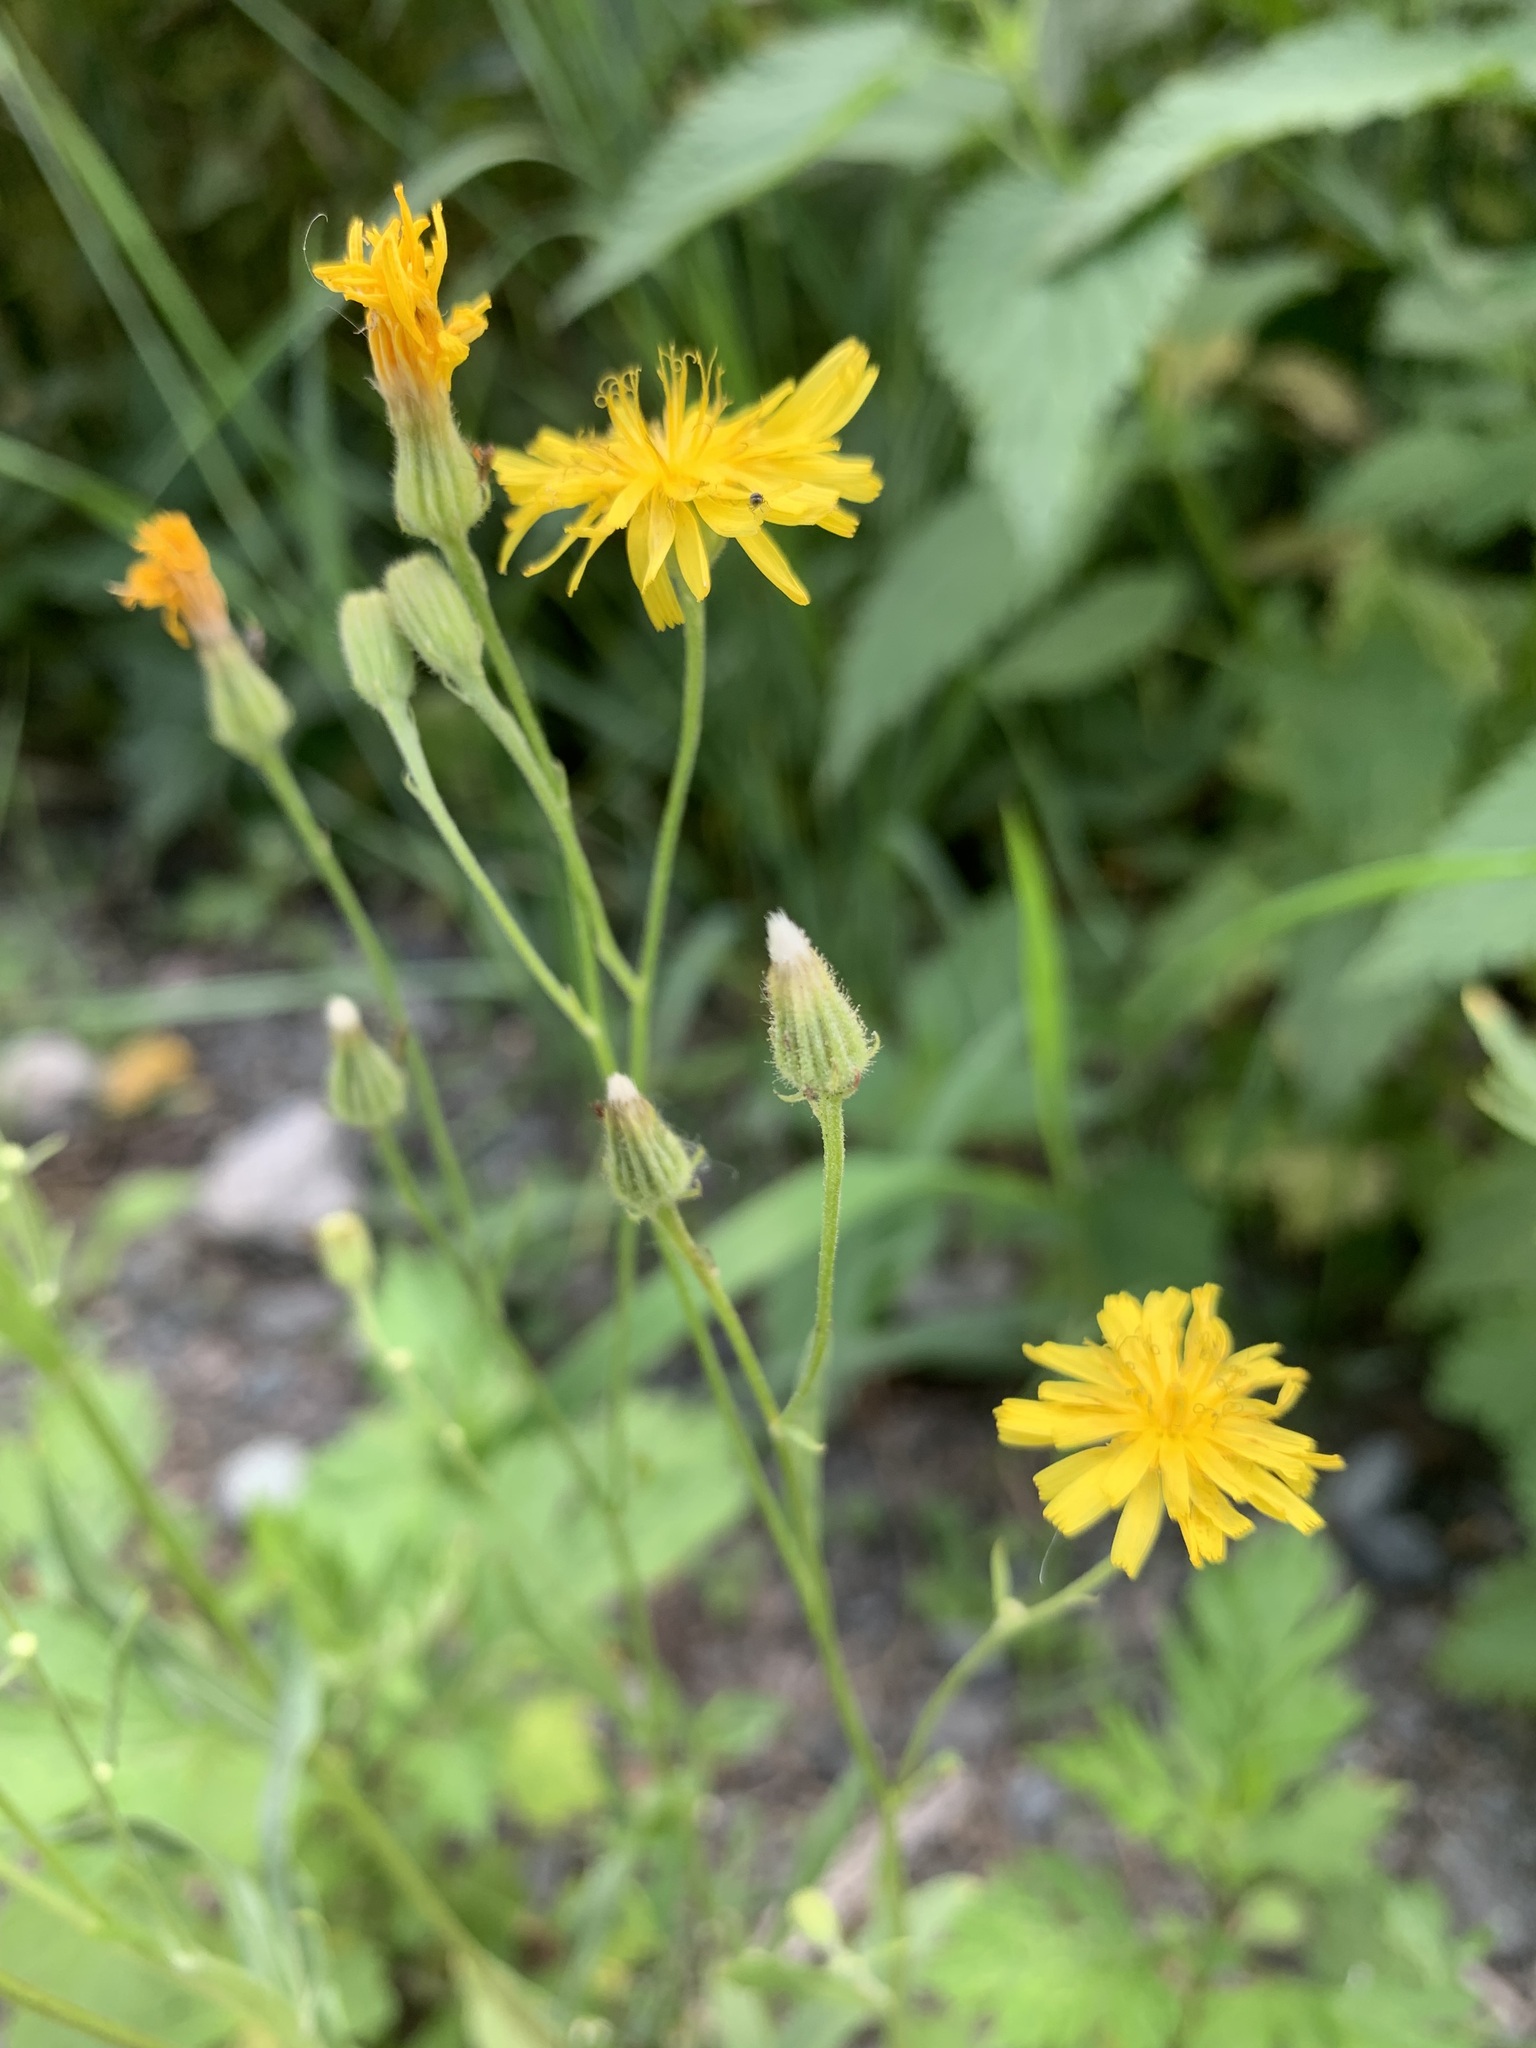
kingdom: Plantae
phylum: Tracheophyta
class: Magnoliopsida
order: Asterales
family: Asteraceae
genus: Crepis
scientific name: Crepis tectorum
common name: Narrow-leaved hawk's-beard
